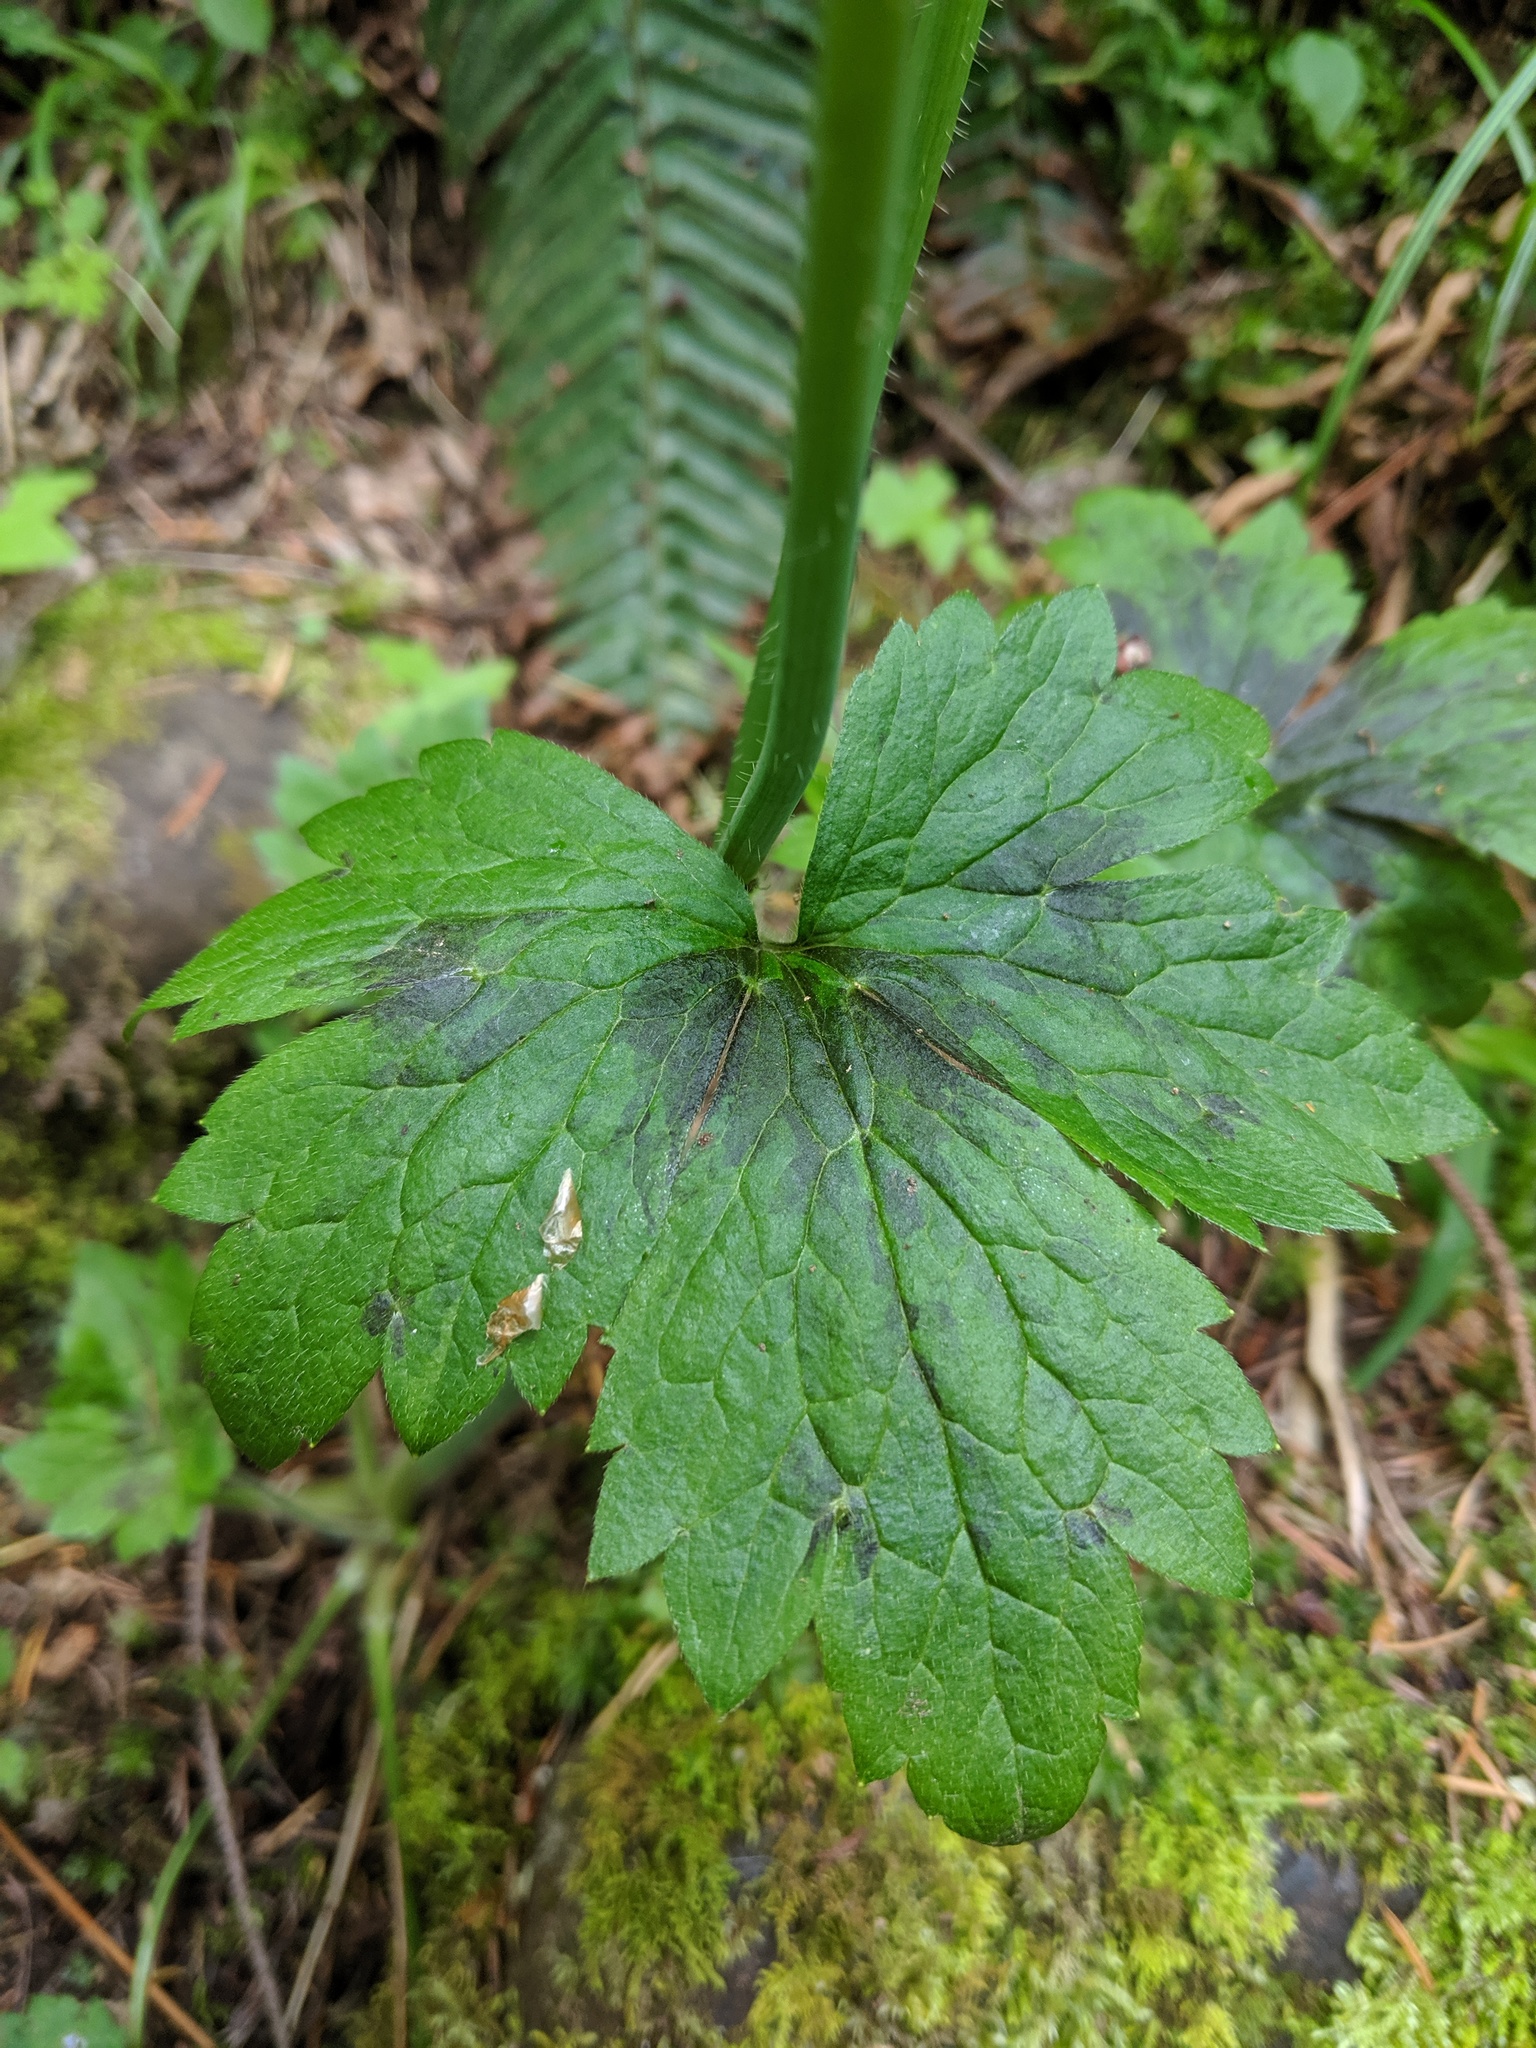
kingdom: Plantae
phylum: Tracheophyta
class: Magnoliopsida
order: Ranunculales
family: Ranunculaceae
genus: Ranunculus
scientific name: Ranunculus uncinatus
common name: Little buttercup
